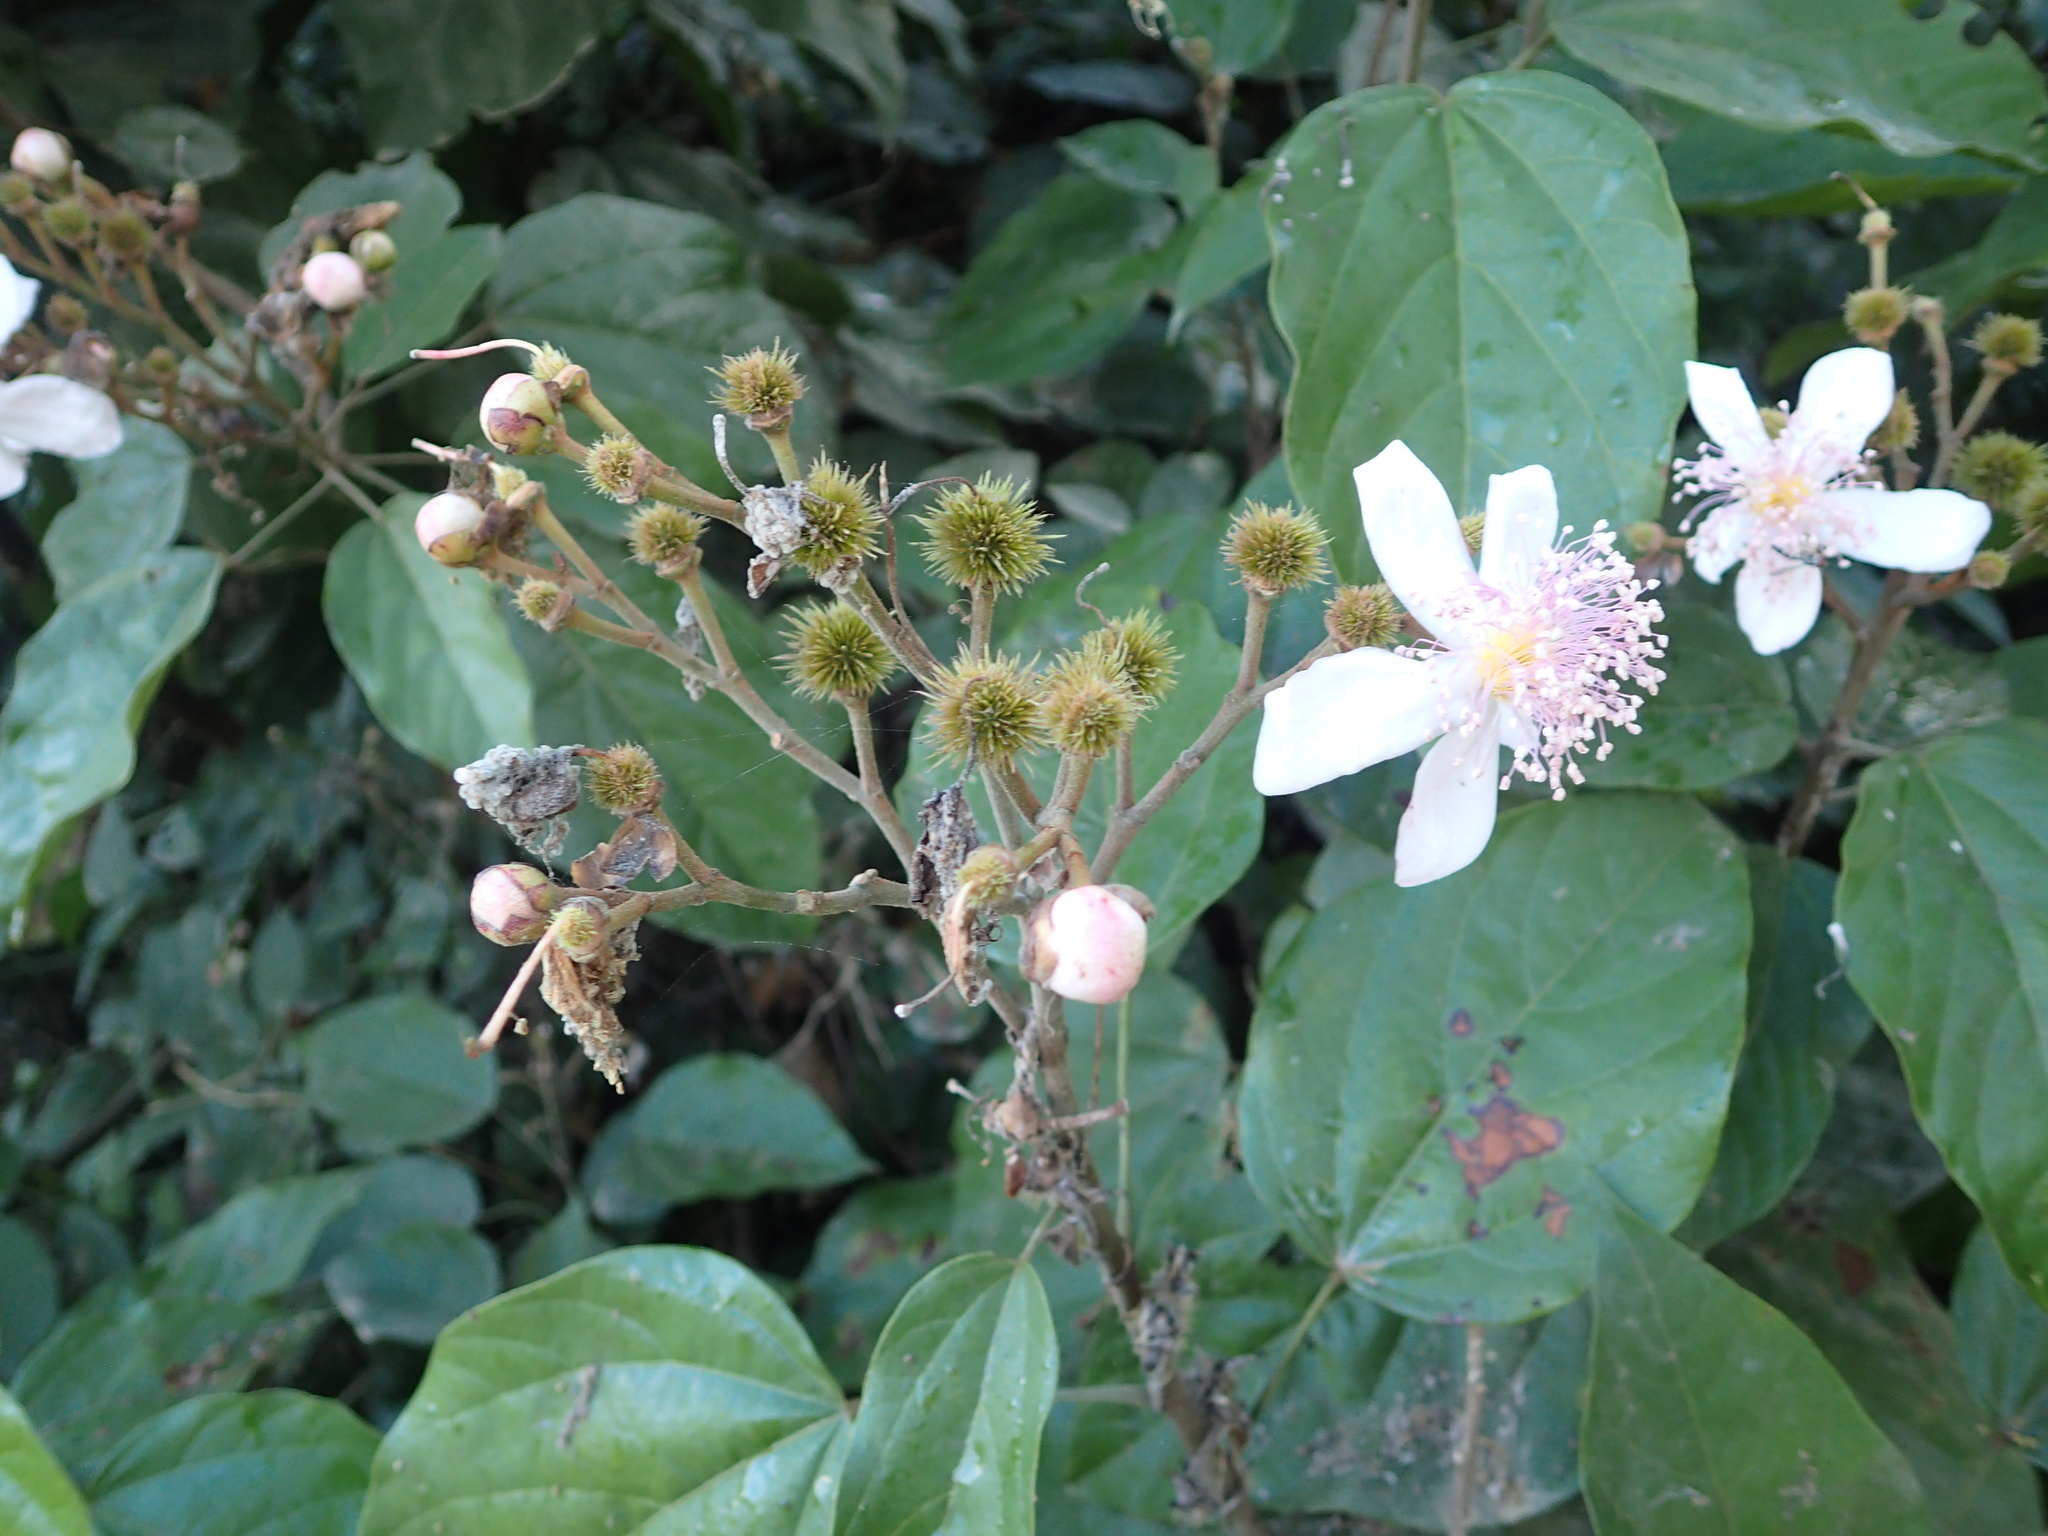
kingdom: Plantae
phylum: Tracheophyta
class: Magnoliopsida
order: Malvales
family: Bixaceae
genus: Bixa
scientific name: Bixa orellana
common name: Lipsticktree
